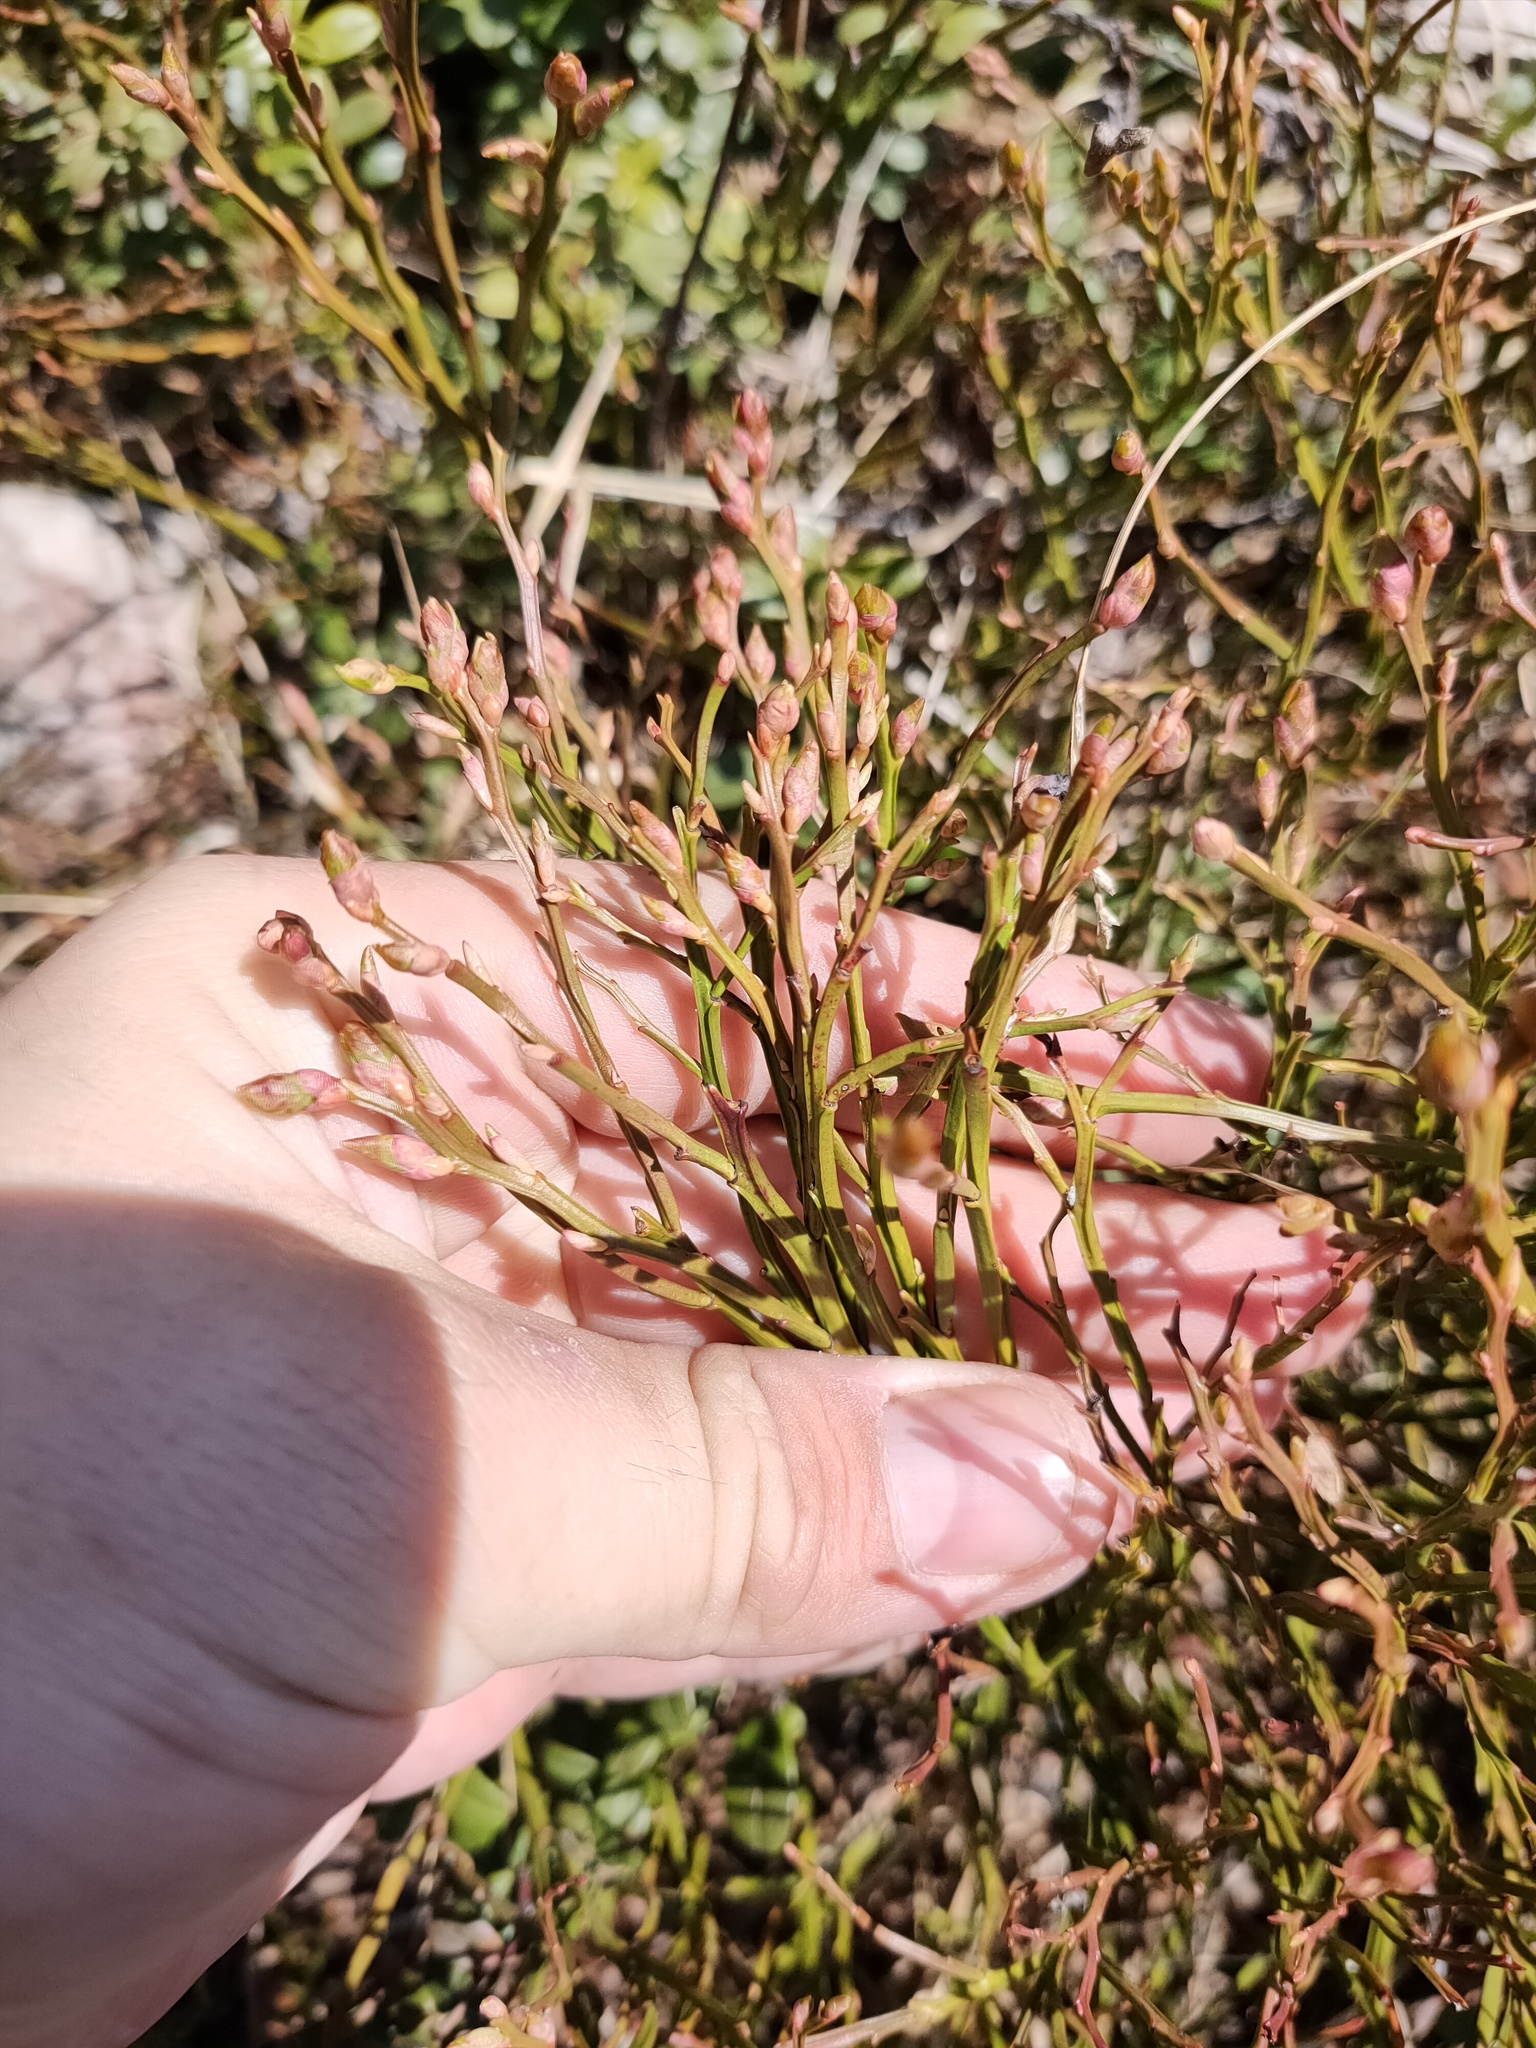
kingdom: Plantae
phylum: Tracheophyta
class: Magnoliopsida
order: Ericales
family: Ericaceae
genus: Vaccinium
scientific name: Vaccinium myrtillus
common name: Bilberry
